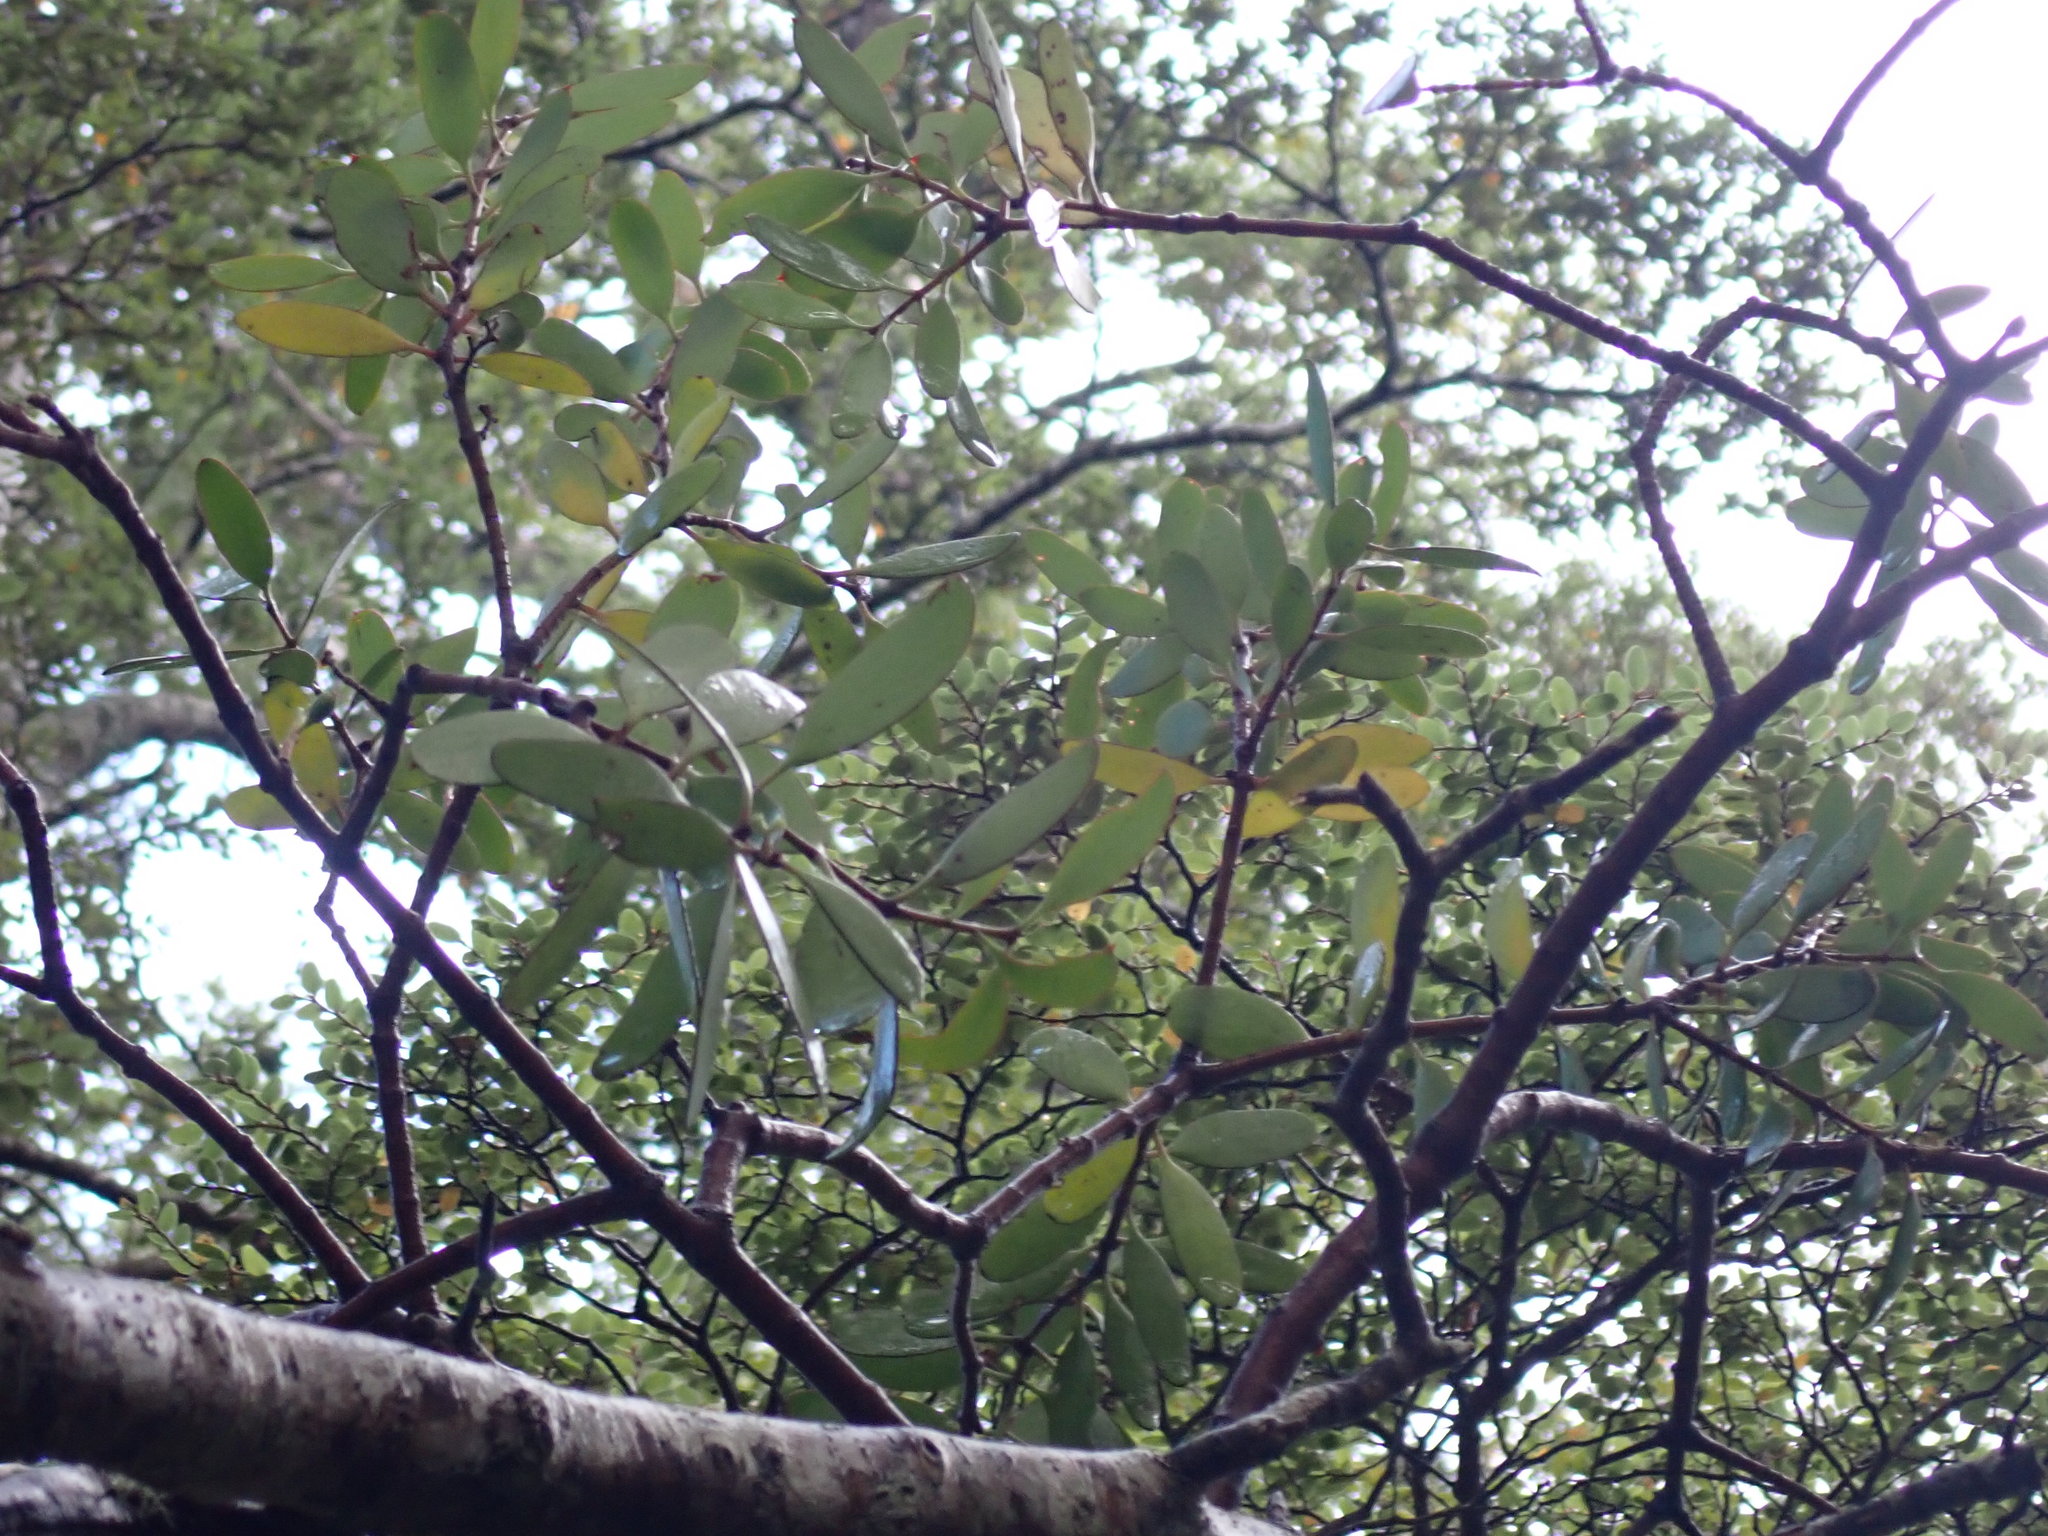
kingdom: Plantae
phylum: Tracheophyta
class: Magnoliopsida
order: Santalales
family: Loranthaceae
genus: Alepis
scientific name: Alepis flavida
